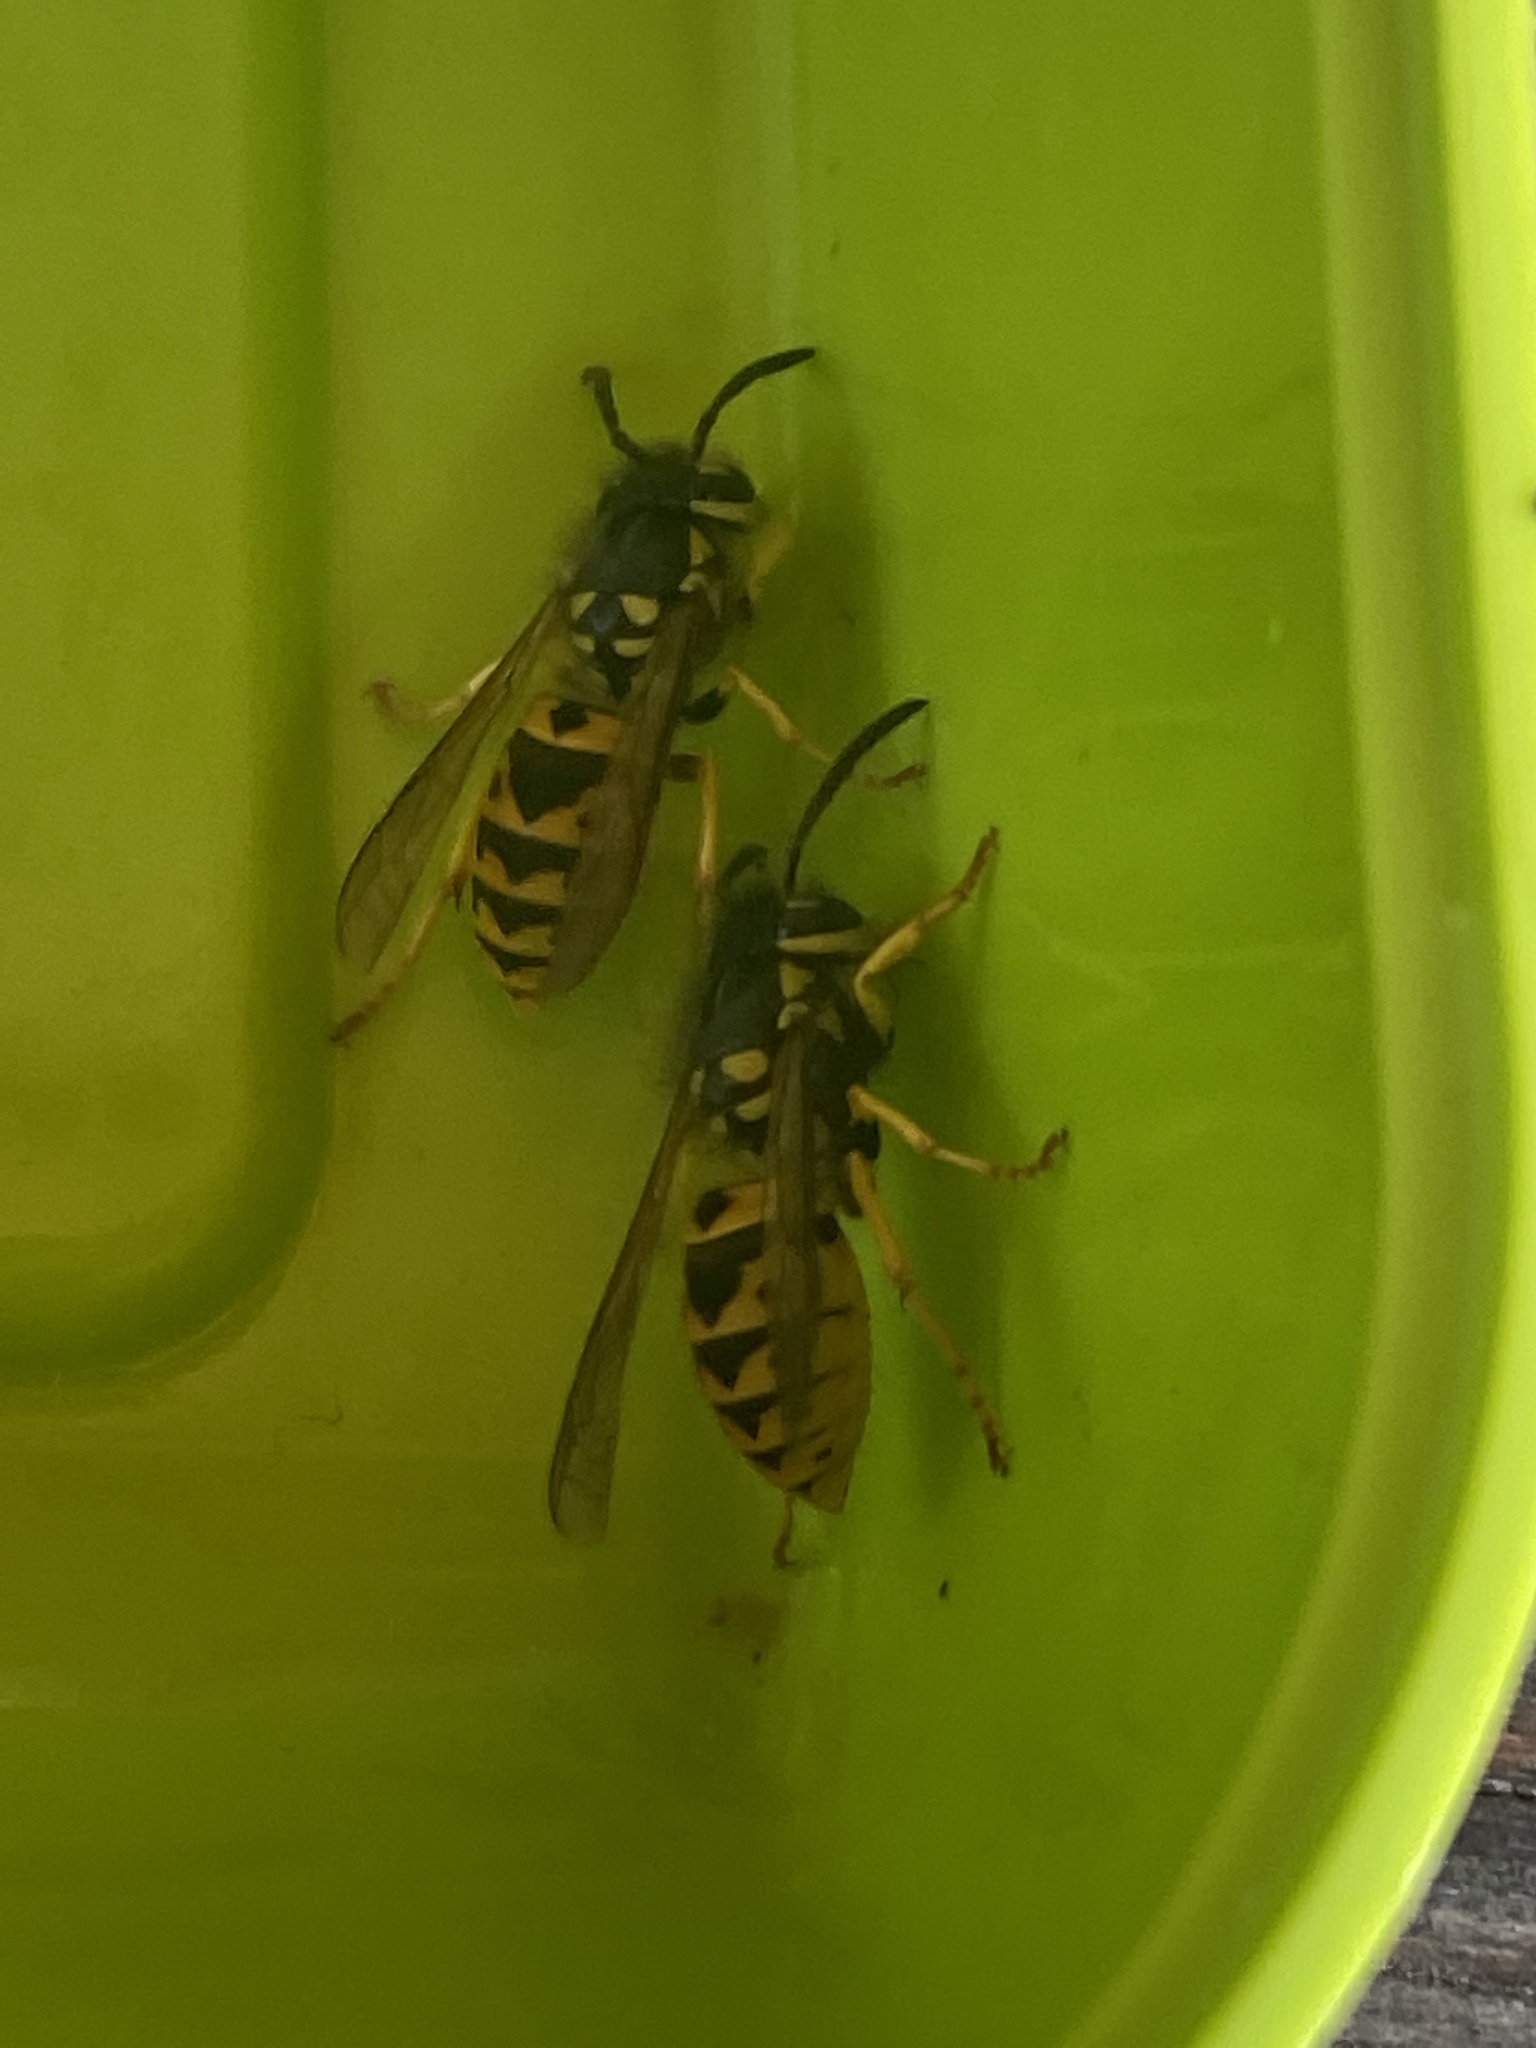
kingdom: Animalia
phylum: Arthropoda
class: Insecta
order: Hymenoptera
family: Vespidae
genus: Vespula
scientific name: Vespula germanica
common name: German wasp
